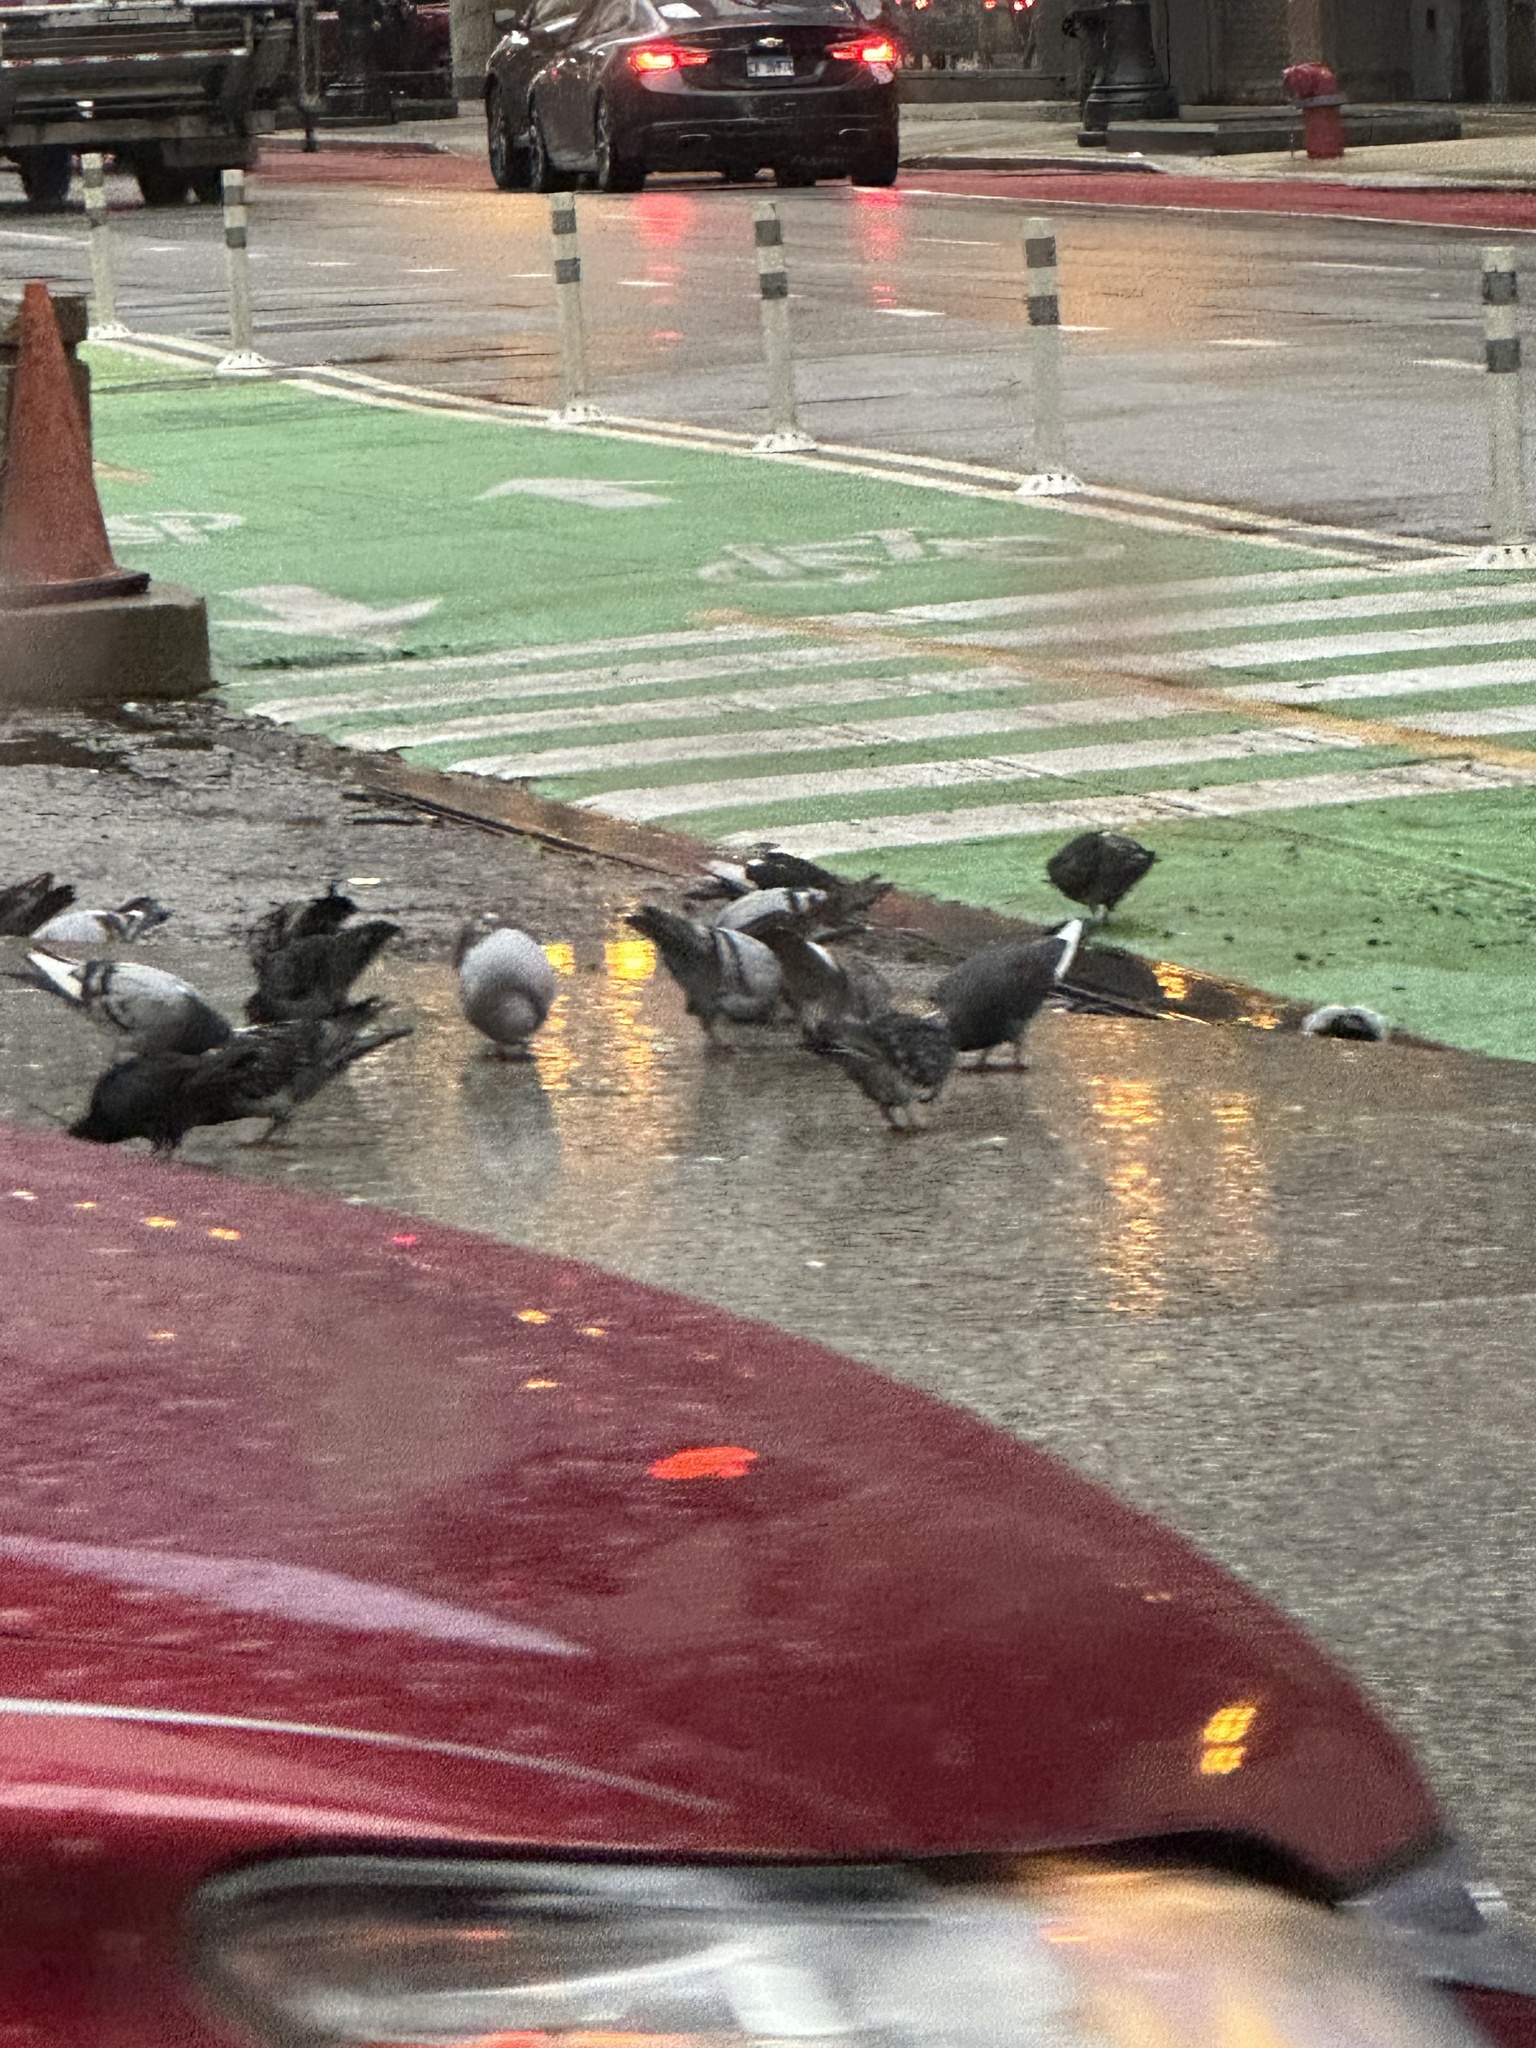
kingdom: Animalia
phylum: Chordata
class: Aves
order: Columbiformes
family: Columbidae
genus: Columba
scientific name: Columba livia
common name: Rock pigeon
